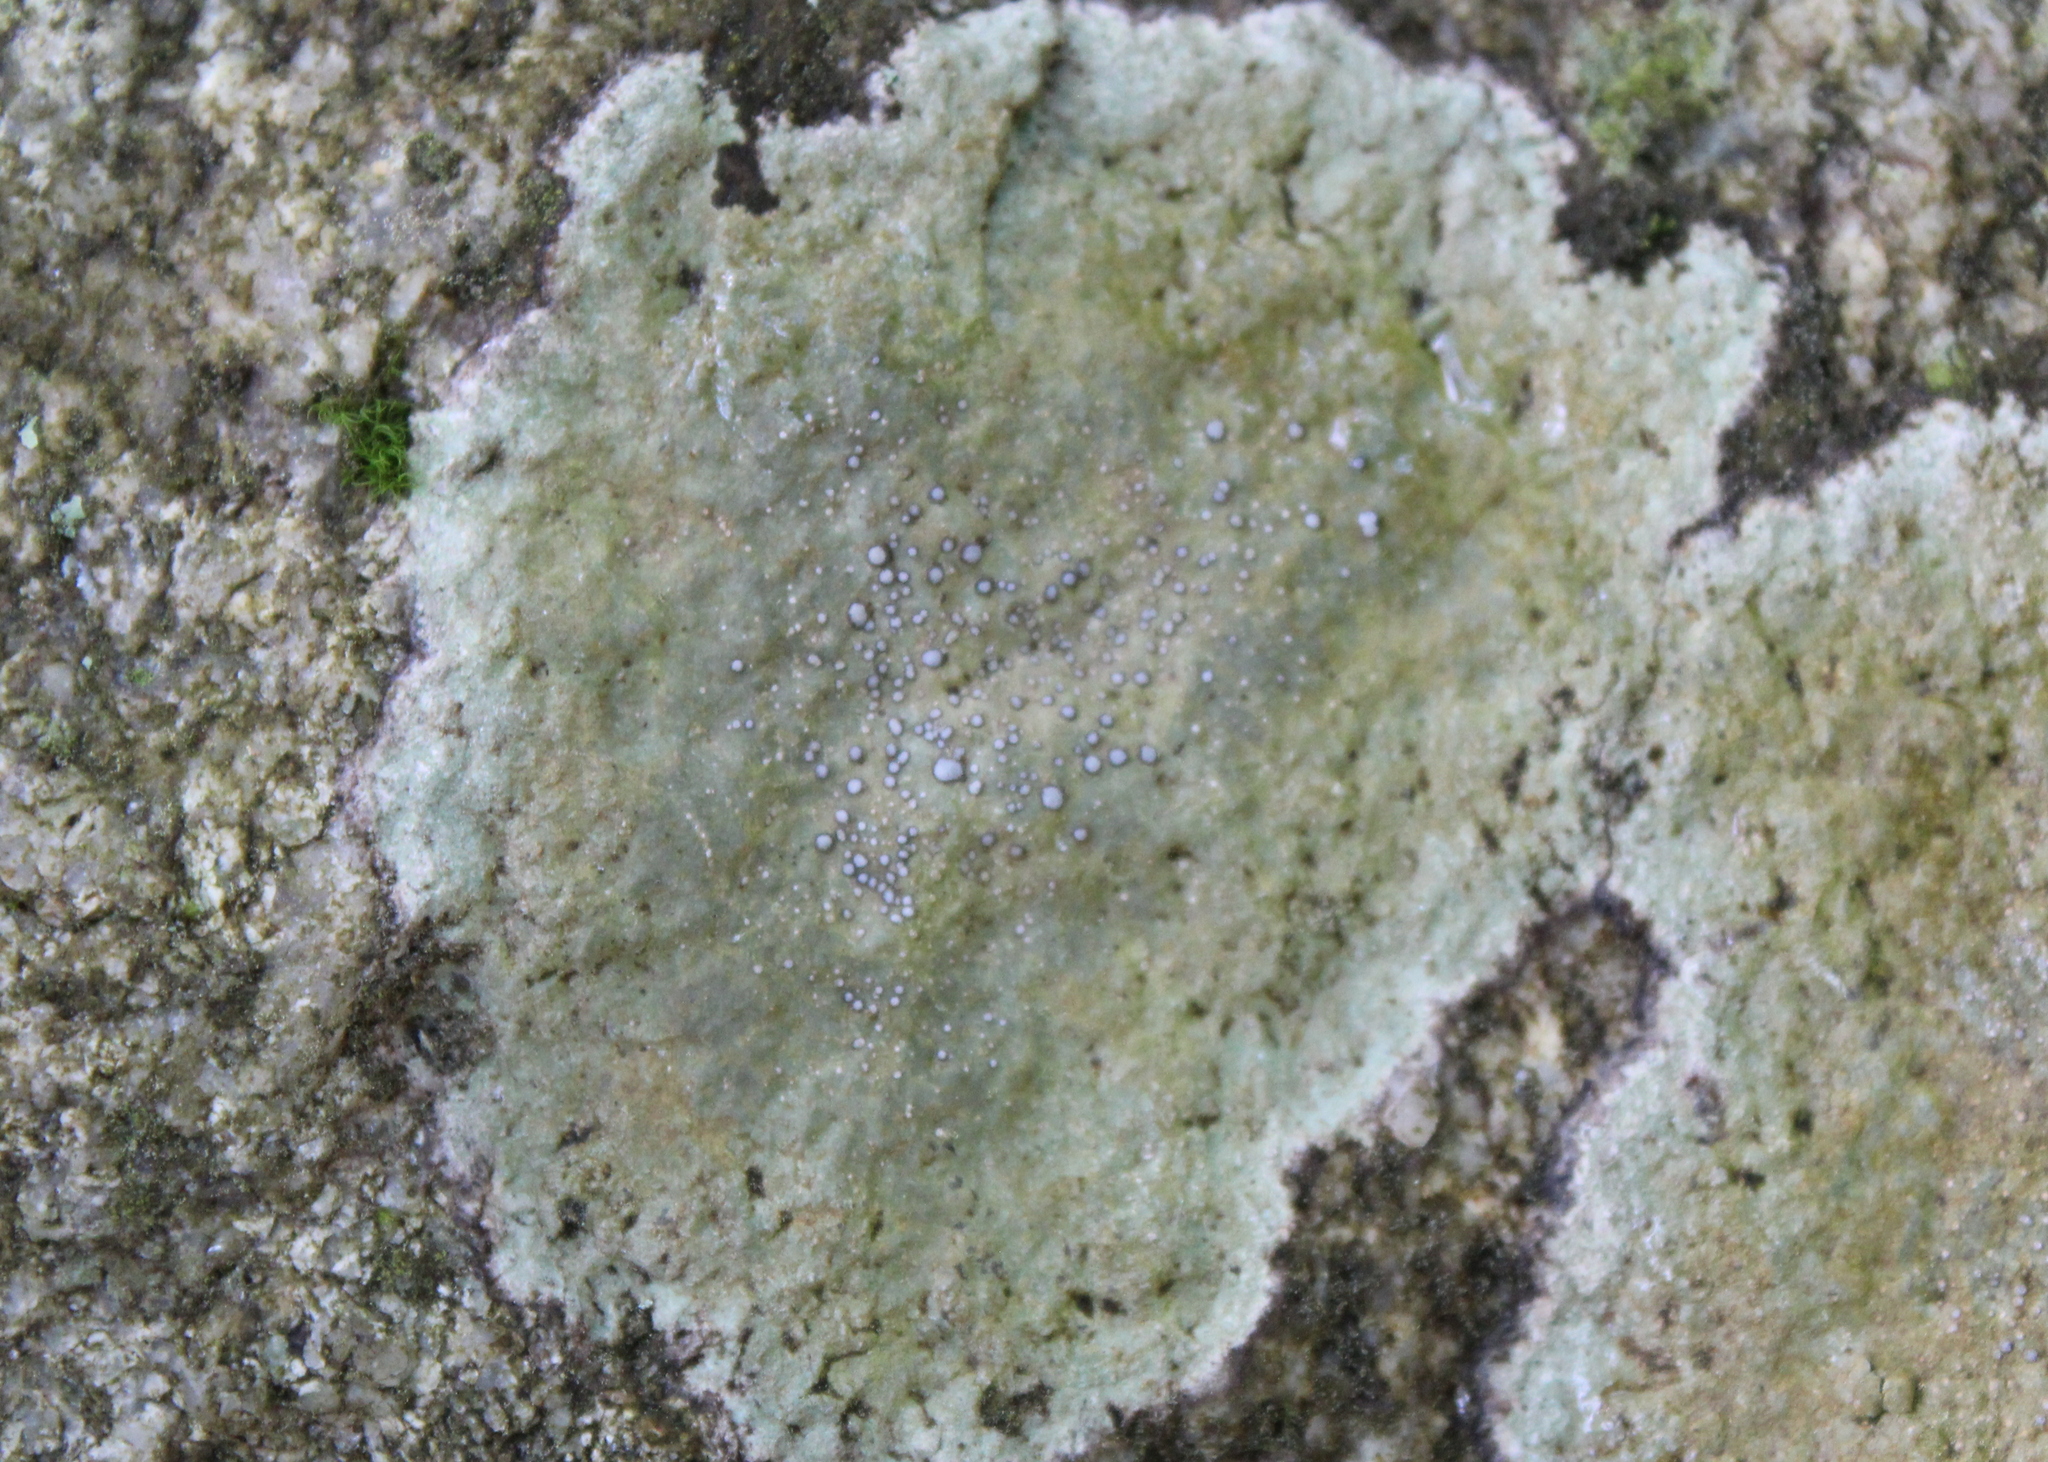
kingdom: Fungi
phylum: Ascomycota
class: Lecanoromycetes
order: Lecideales
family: Lecideaceae
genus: Porpidia
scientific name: Porpidia albocaerulescens
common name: Smokey-eyed boulder lichen
